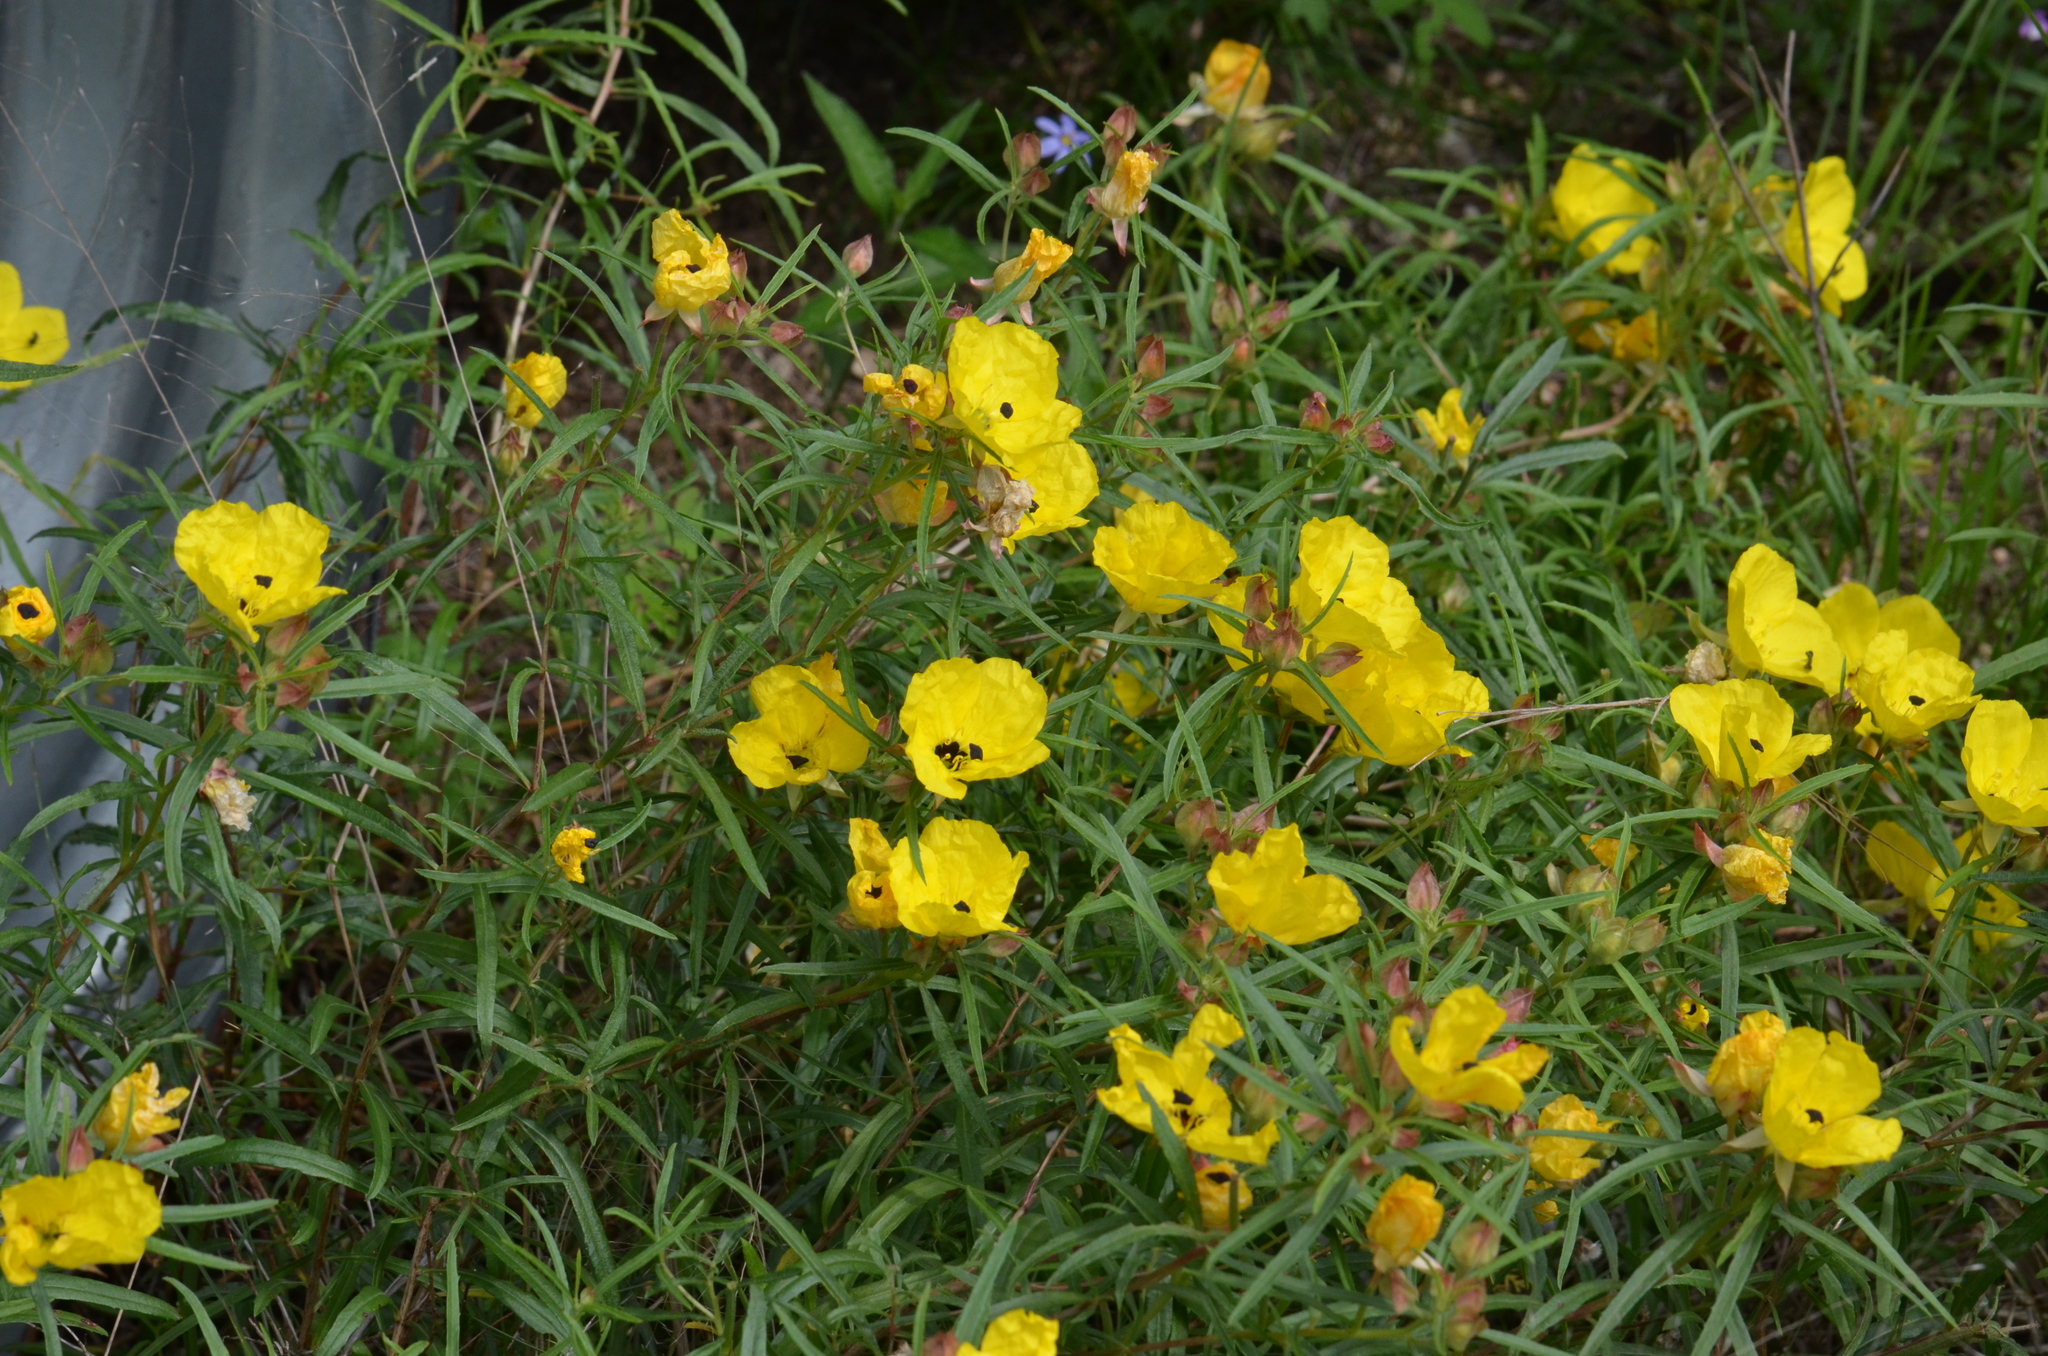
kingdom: Plantae
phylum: Tracheophyta
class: Magnoliopsida
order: Myrtales
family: Onagraceae
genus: Oenothera
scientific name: Oenothera capillifolia
